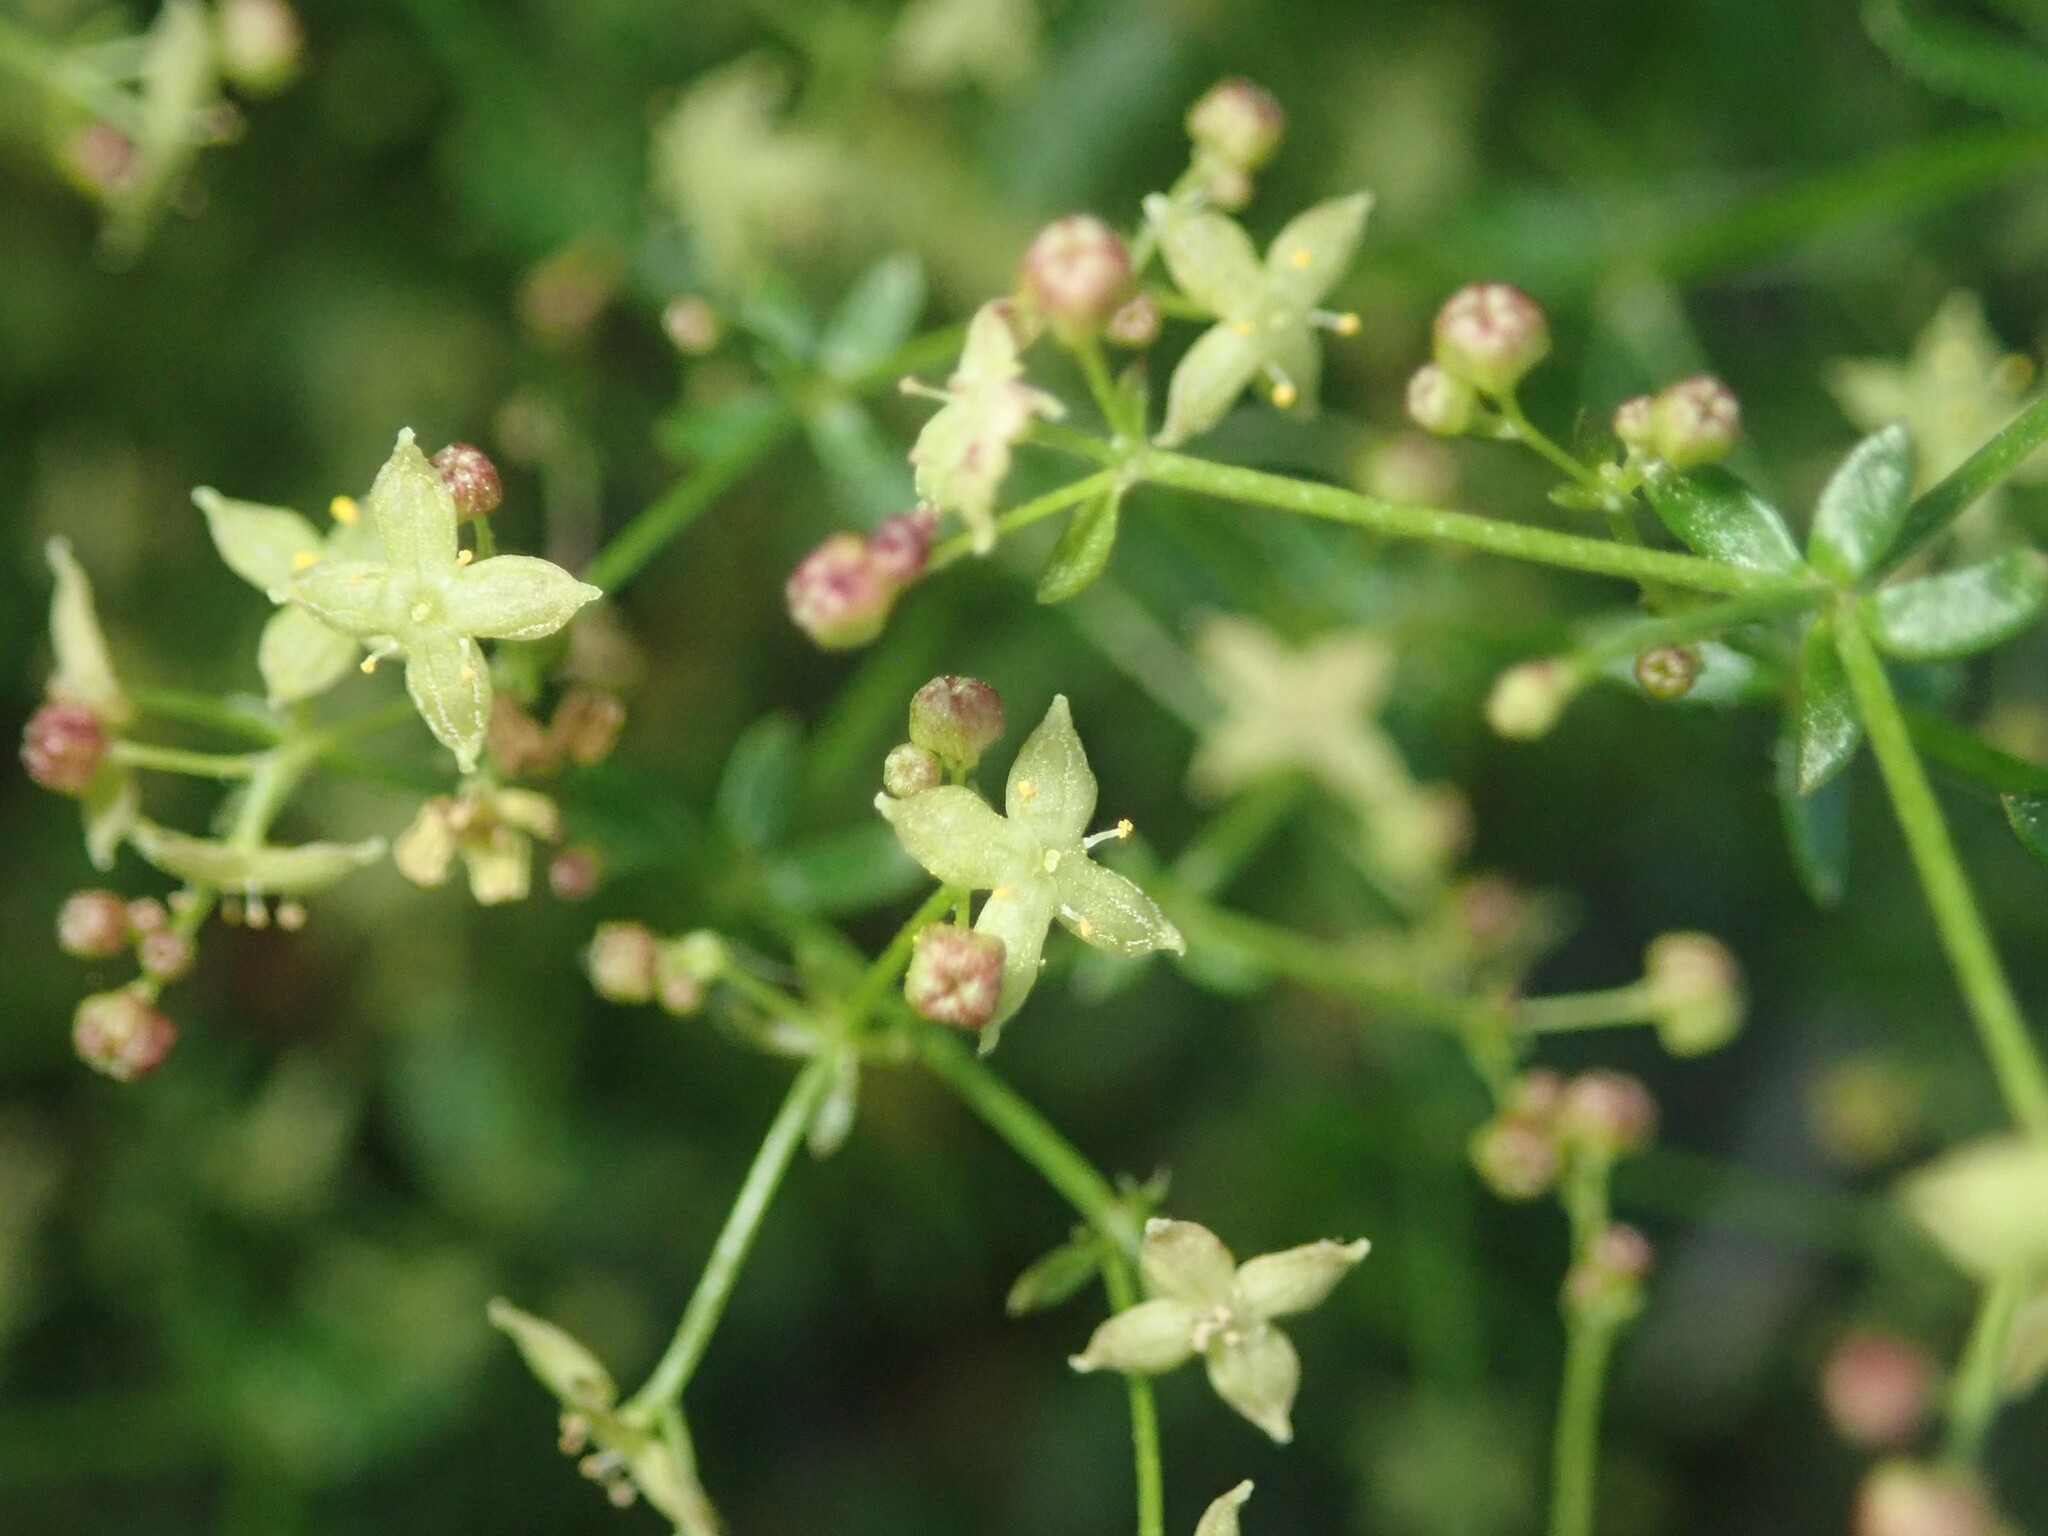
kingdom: Plantae
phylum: Tracheophyta
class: Magnoliopsida
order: Gentianales
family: Rubiaceae
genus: Galium
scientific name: Galium porrigens
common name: Climbing bedstraw
